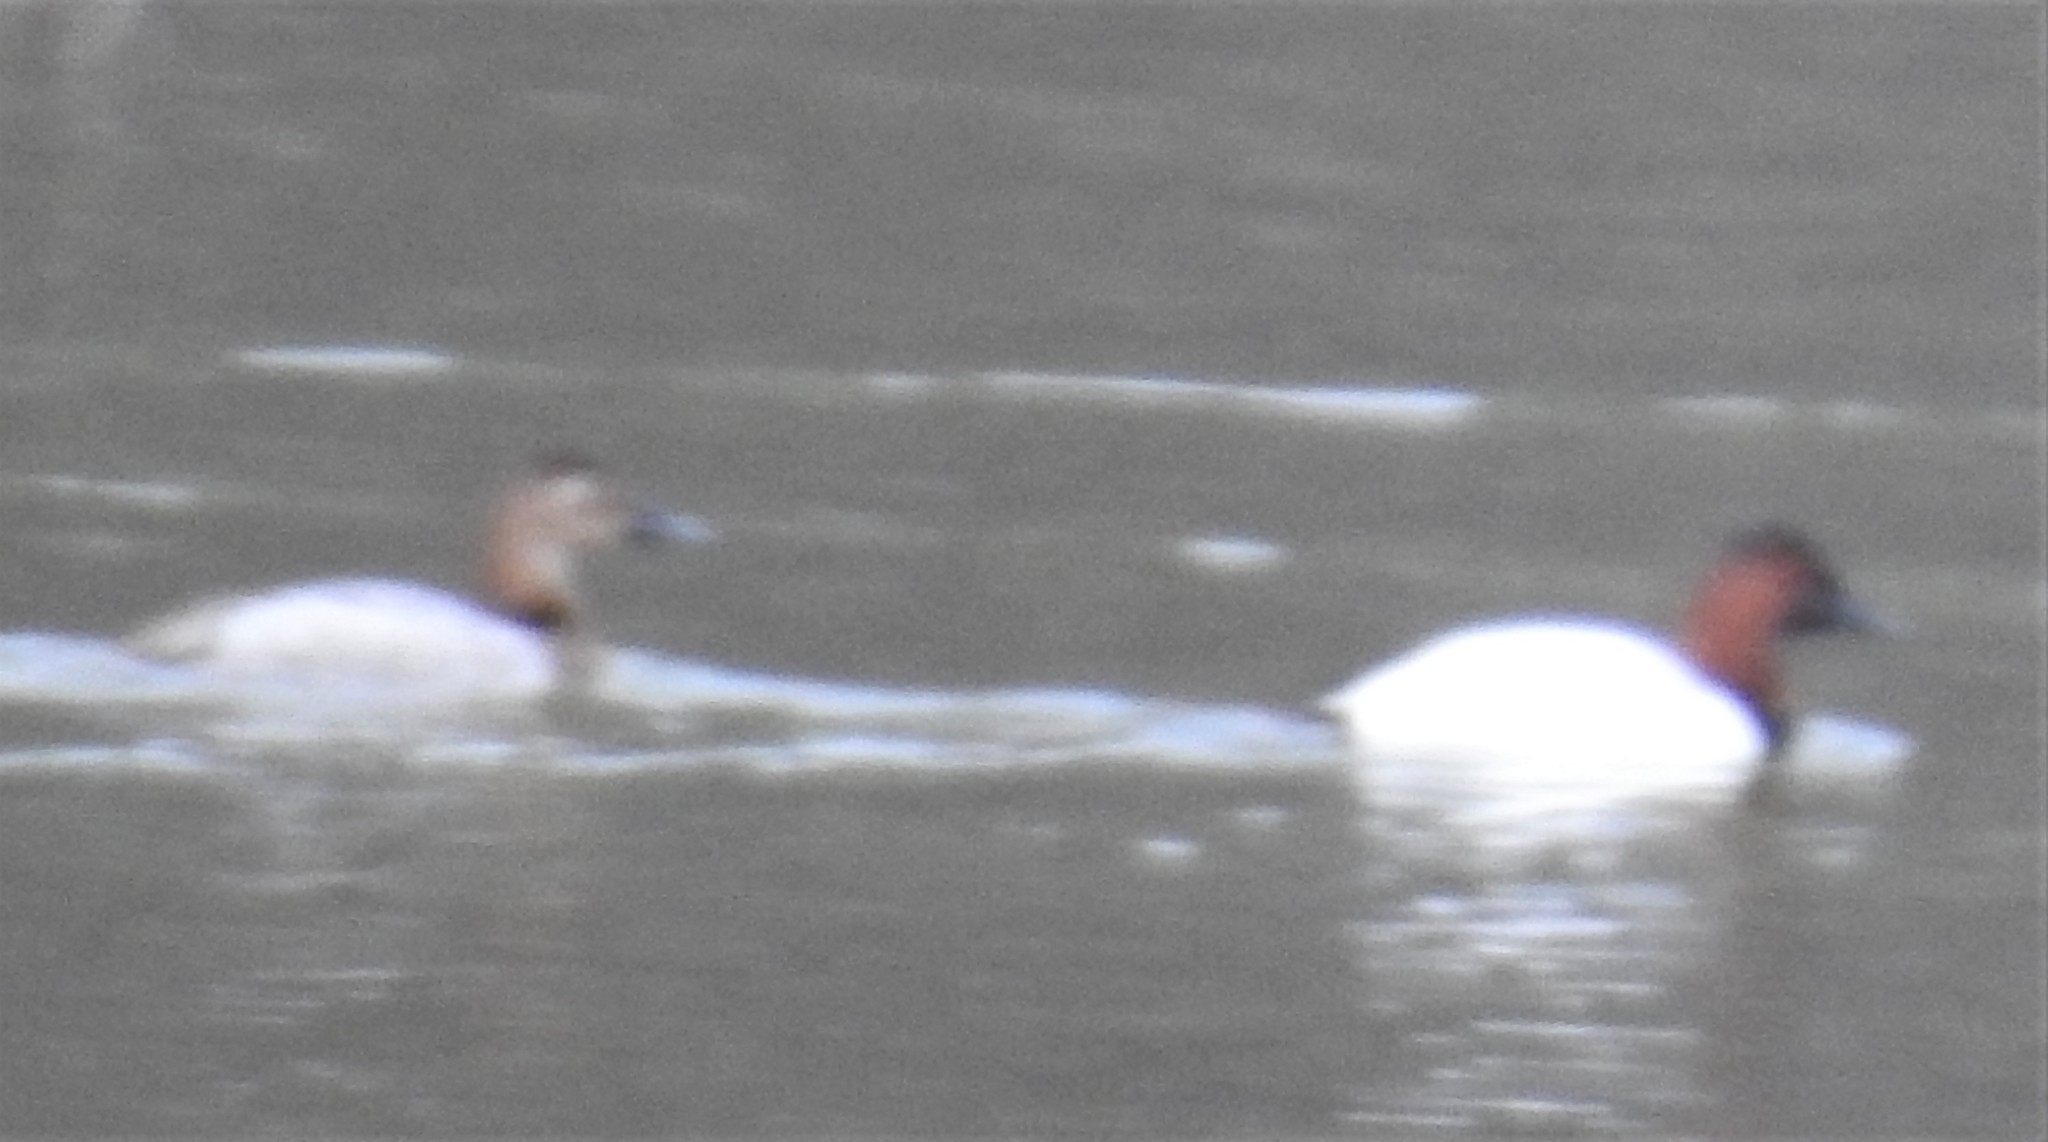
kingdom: Animalia
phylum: Chordata
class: Aves
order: Anseriformes
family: Anatidae
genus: Aythya
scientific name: Aythya valisineria
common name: Canvasback
